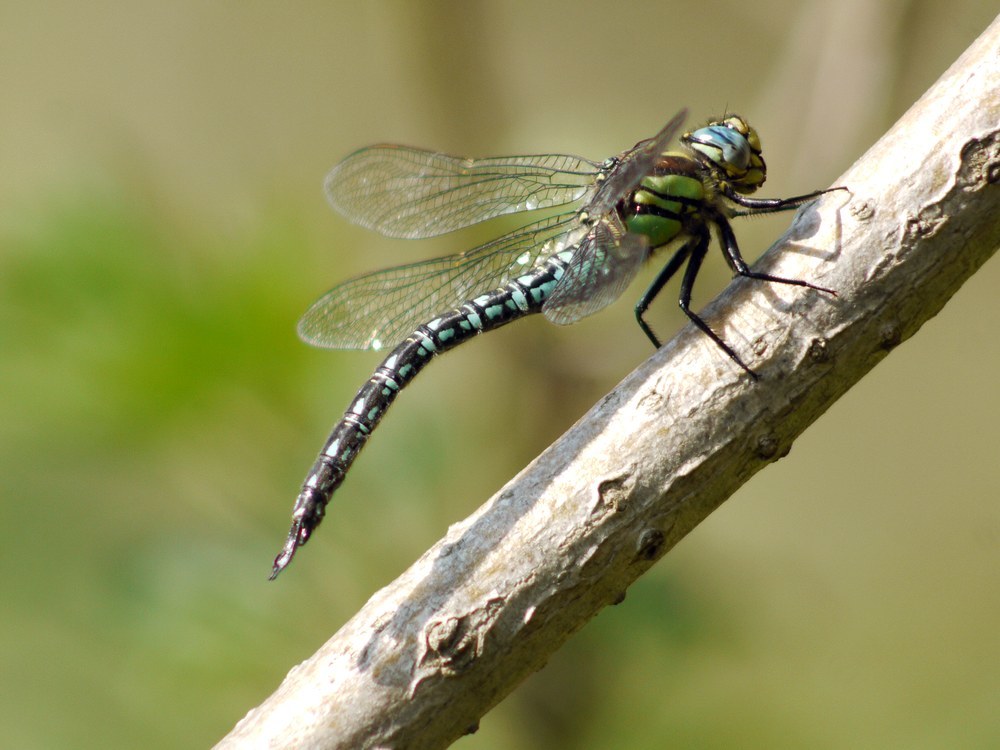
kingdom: Animalia
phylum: Arthropoda
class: Insecta
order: Odonata
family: Aeshnidae
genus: Brachytron
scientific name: Brachytron pratense
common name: Hairy hawker
